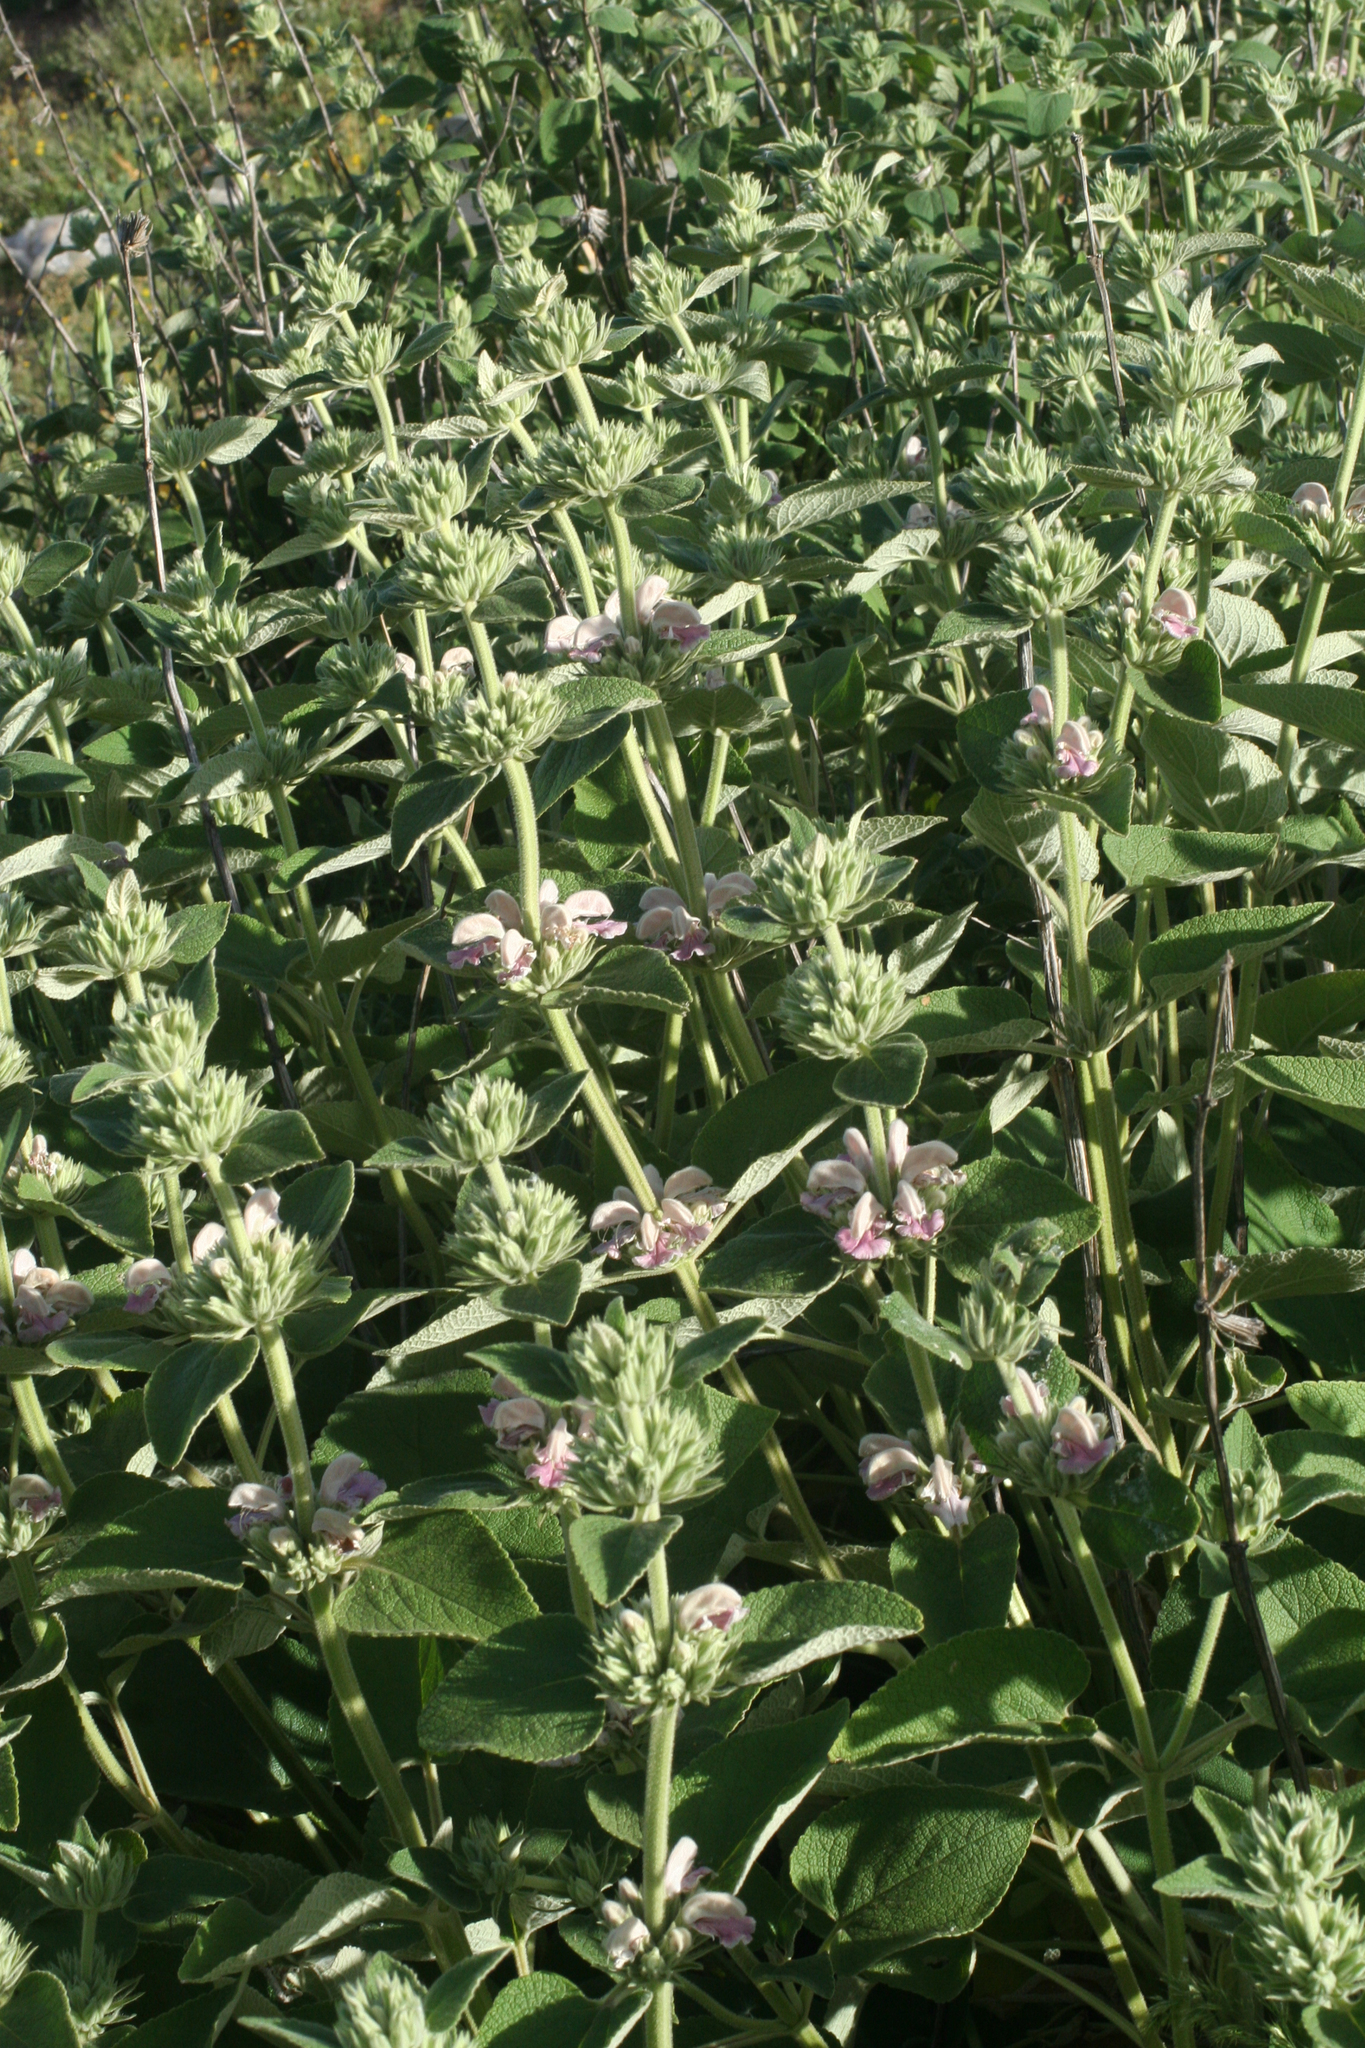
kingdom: Plantae
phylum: Tracheophyta
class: Magnoliopsida
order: Lamiales
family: Lamiaceae
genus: Phlomis
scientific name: Phlomis bovei
